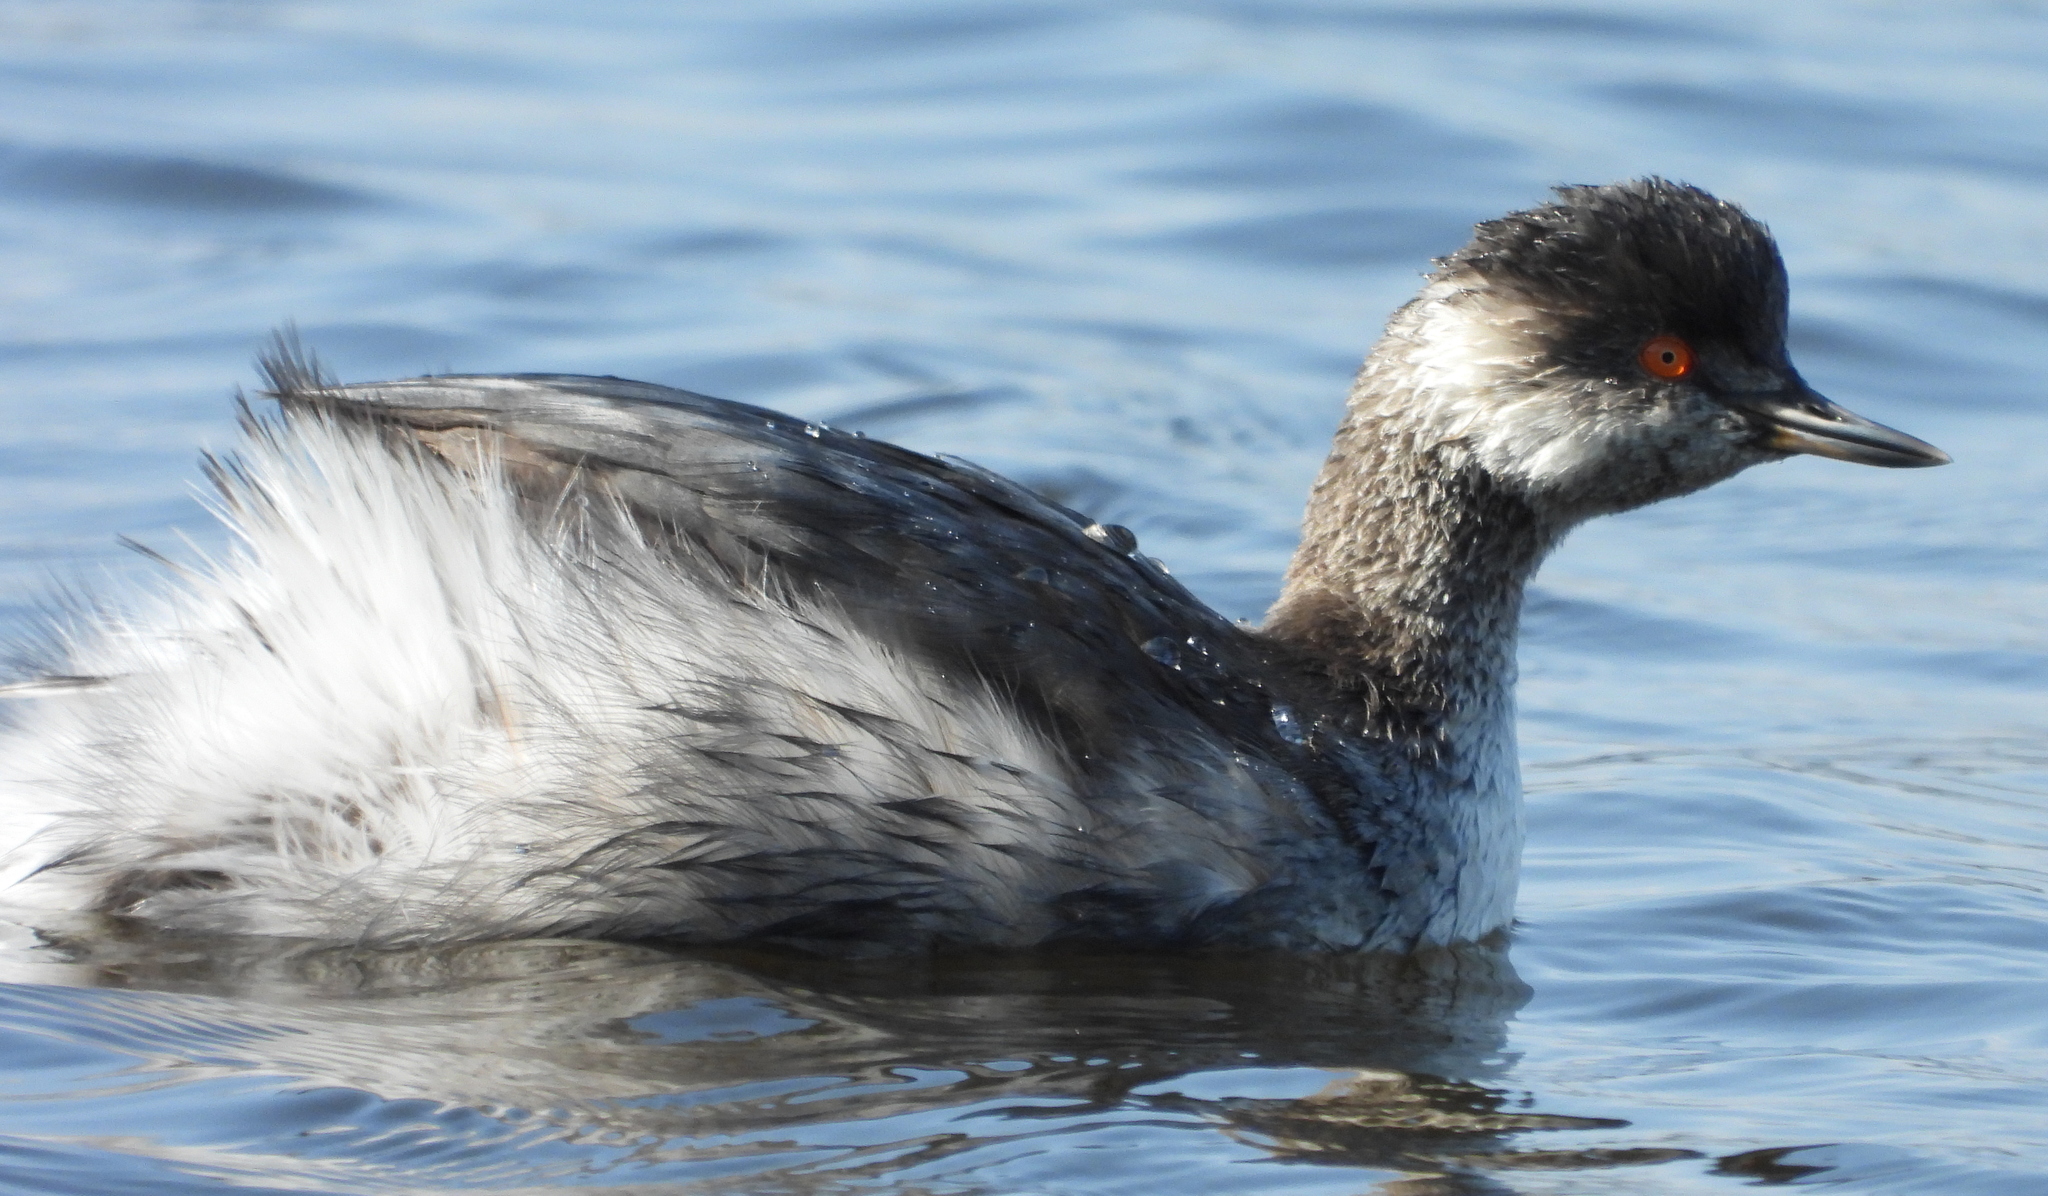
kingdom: Animalia
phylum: Chordata
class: Aves
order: Podicipediformes
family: Podicipedidae
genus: Podiceps
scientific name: Podiceps nigricollis
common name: Black-necked grebe
